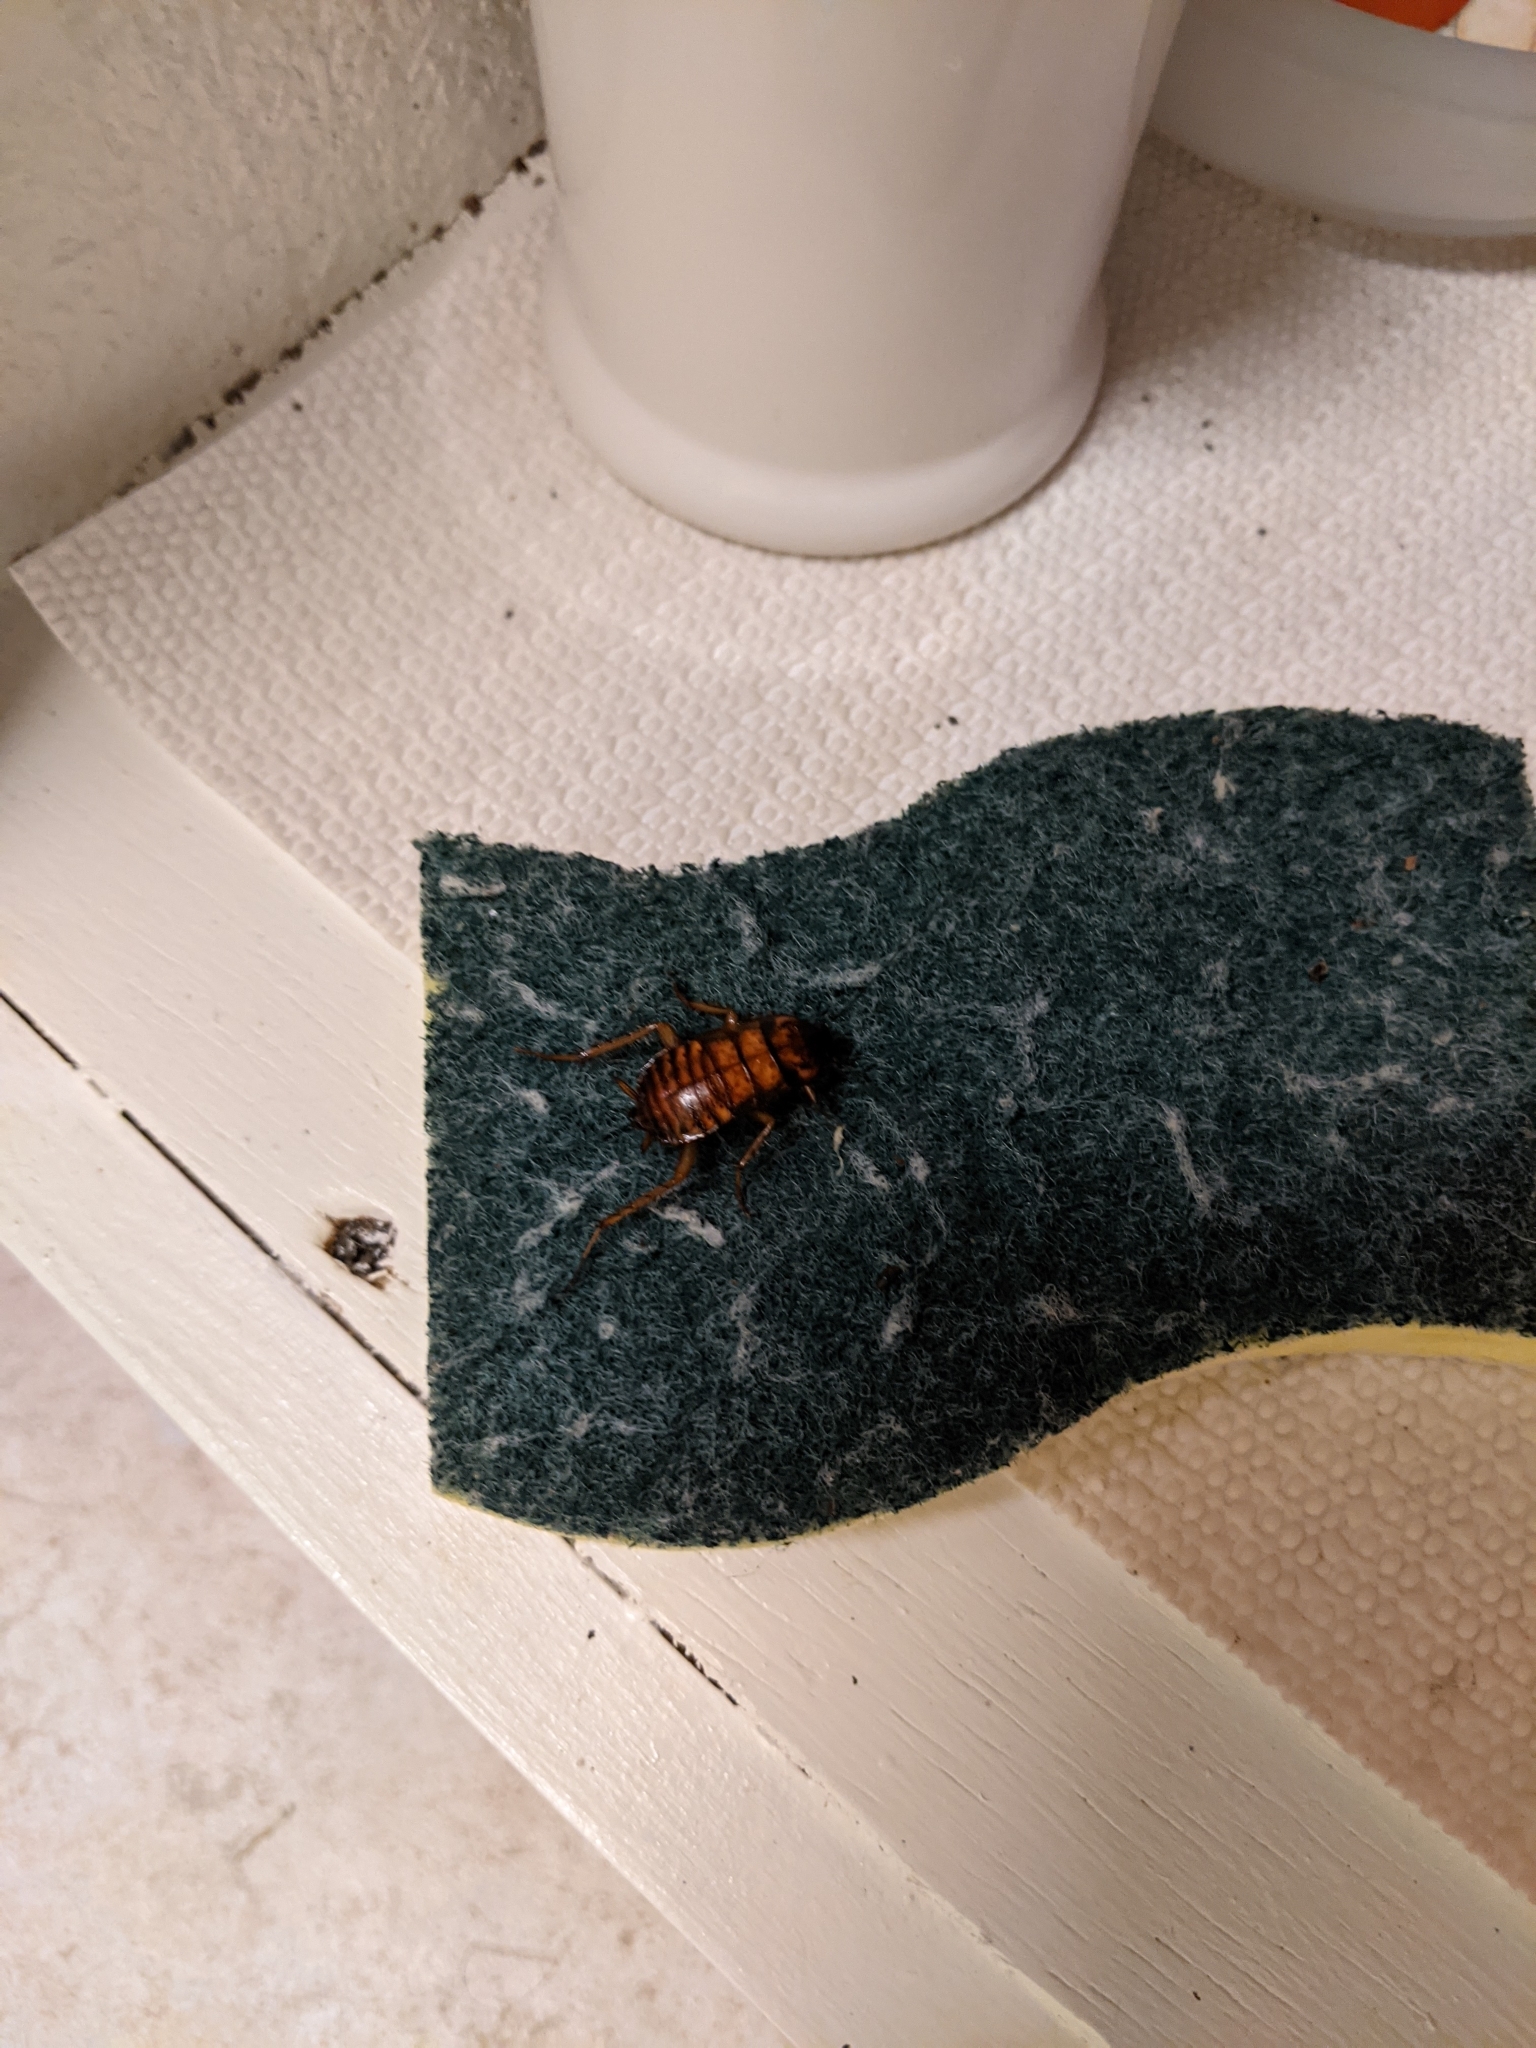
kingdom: Animalia
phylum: Arthropoda
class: Insecta
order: Blattodea
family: Blattidae
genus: Periplaneta
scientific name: Periplaneta fuliginosa
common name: Smokeybrown cockroad
